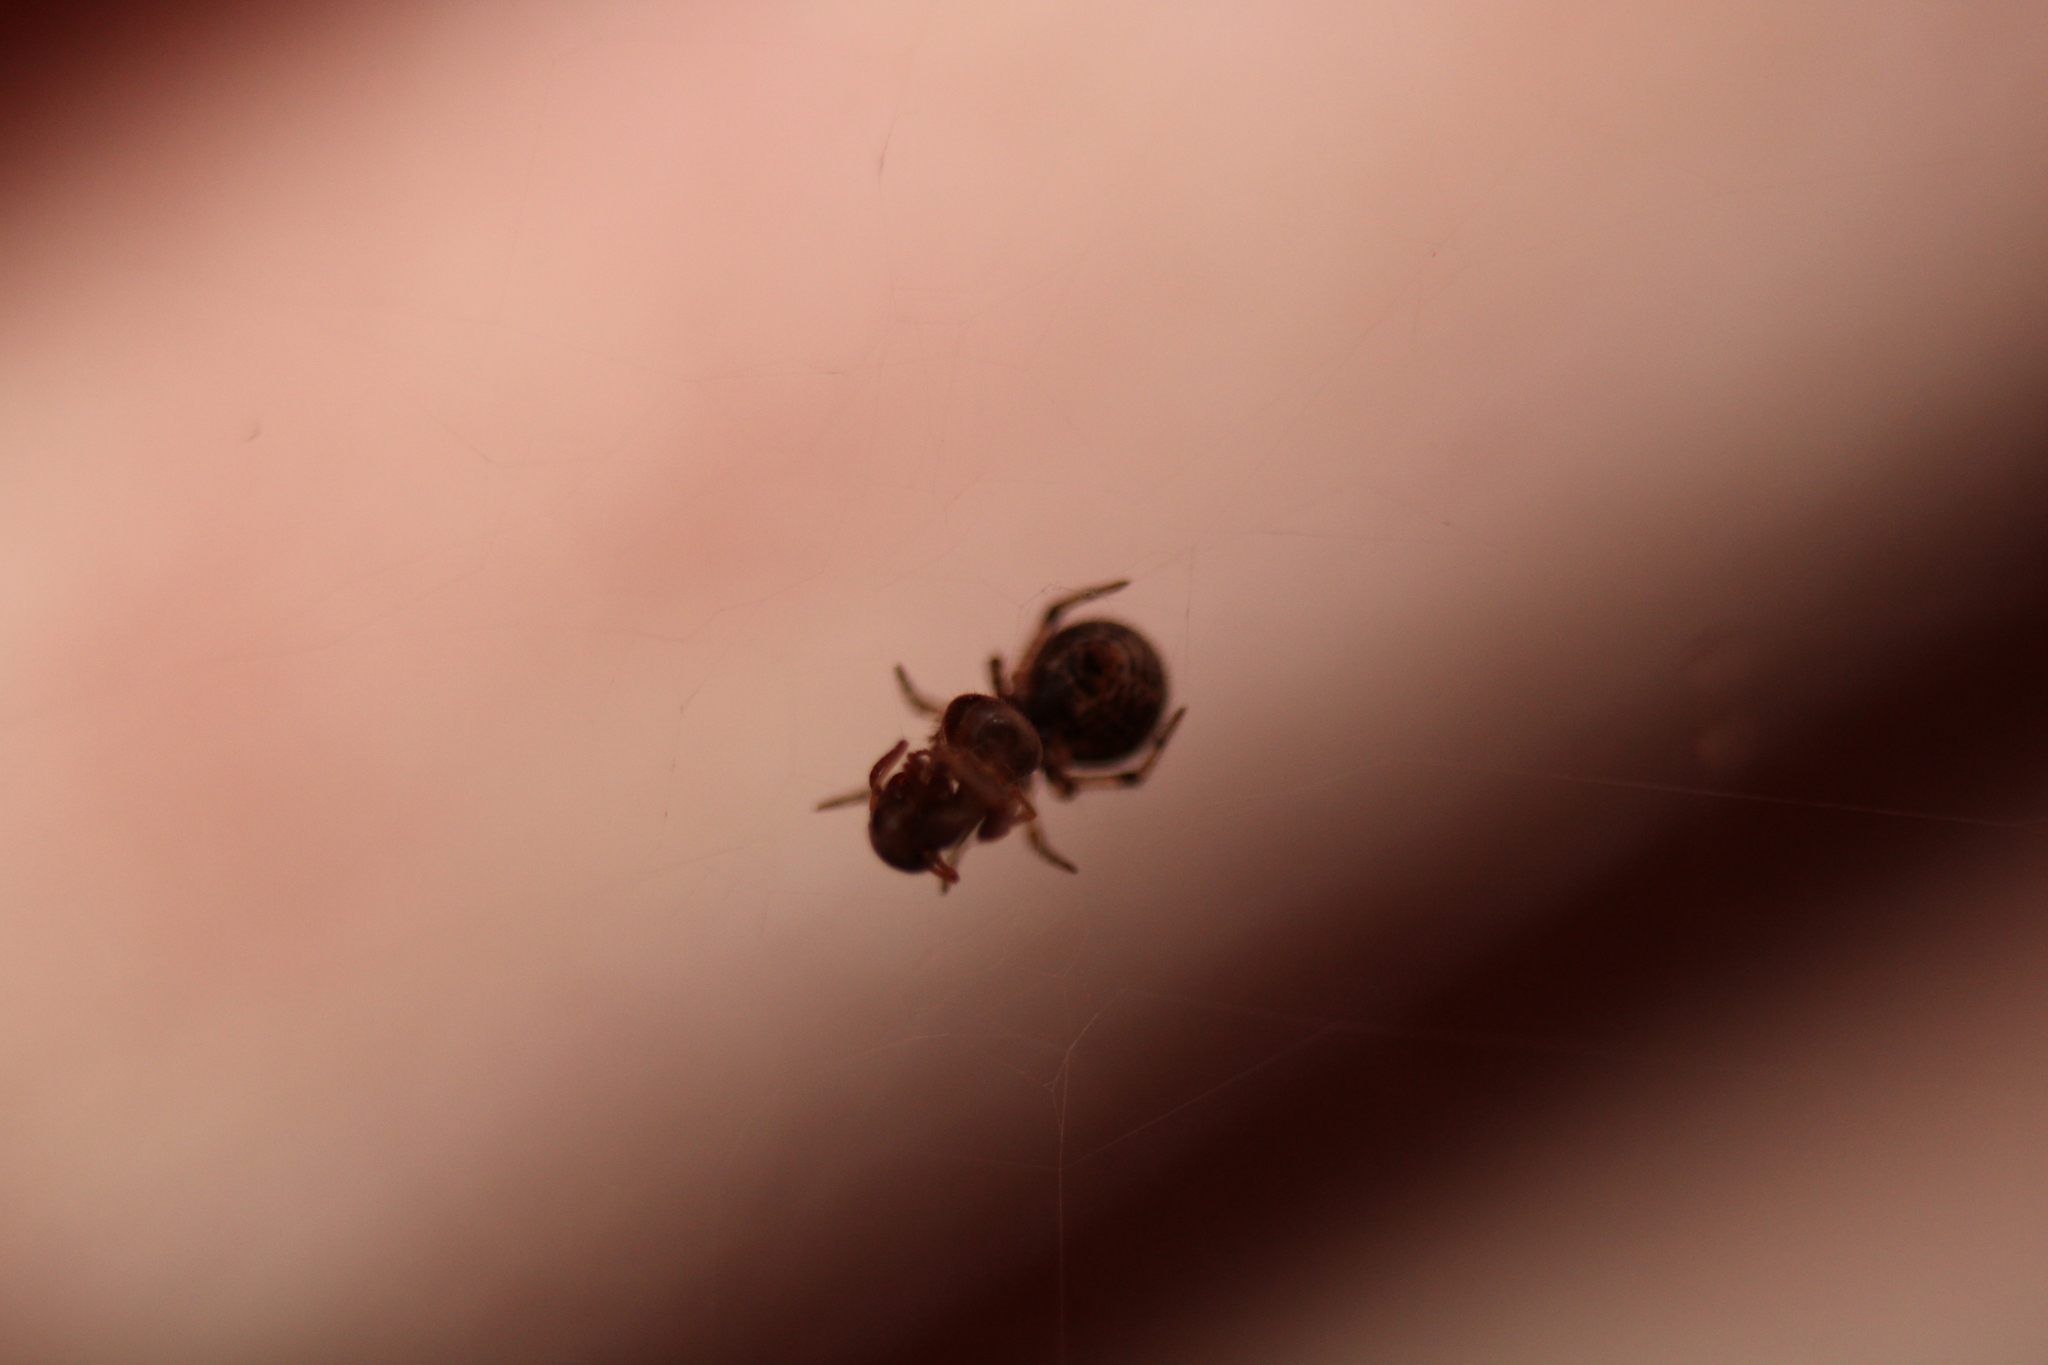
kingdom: Animalia
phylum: Arthropoda
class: Arachnida
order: Araneae
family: Theridiidae
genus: Parasteatoda
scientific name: Parasteatoda tepidariorum
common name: Common house spider
